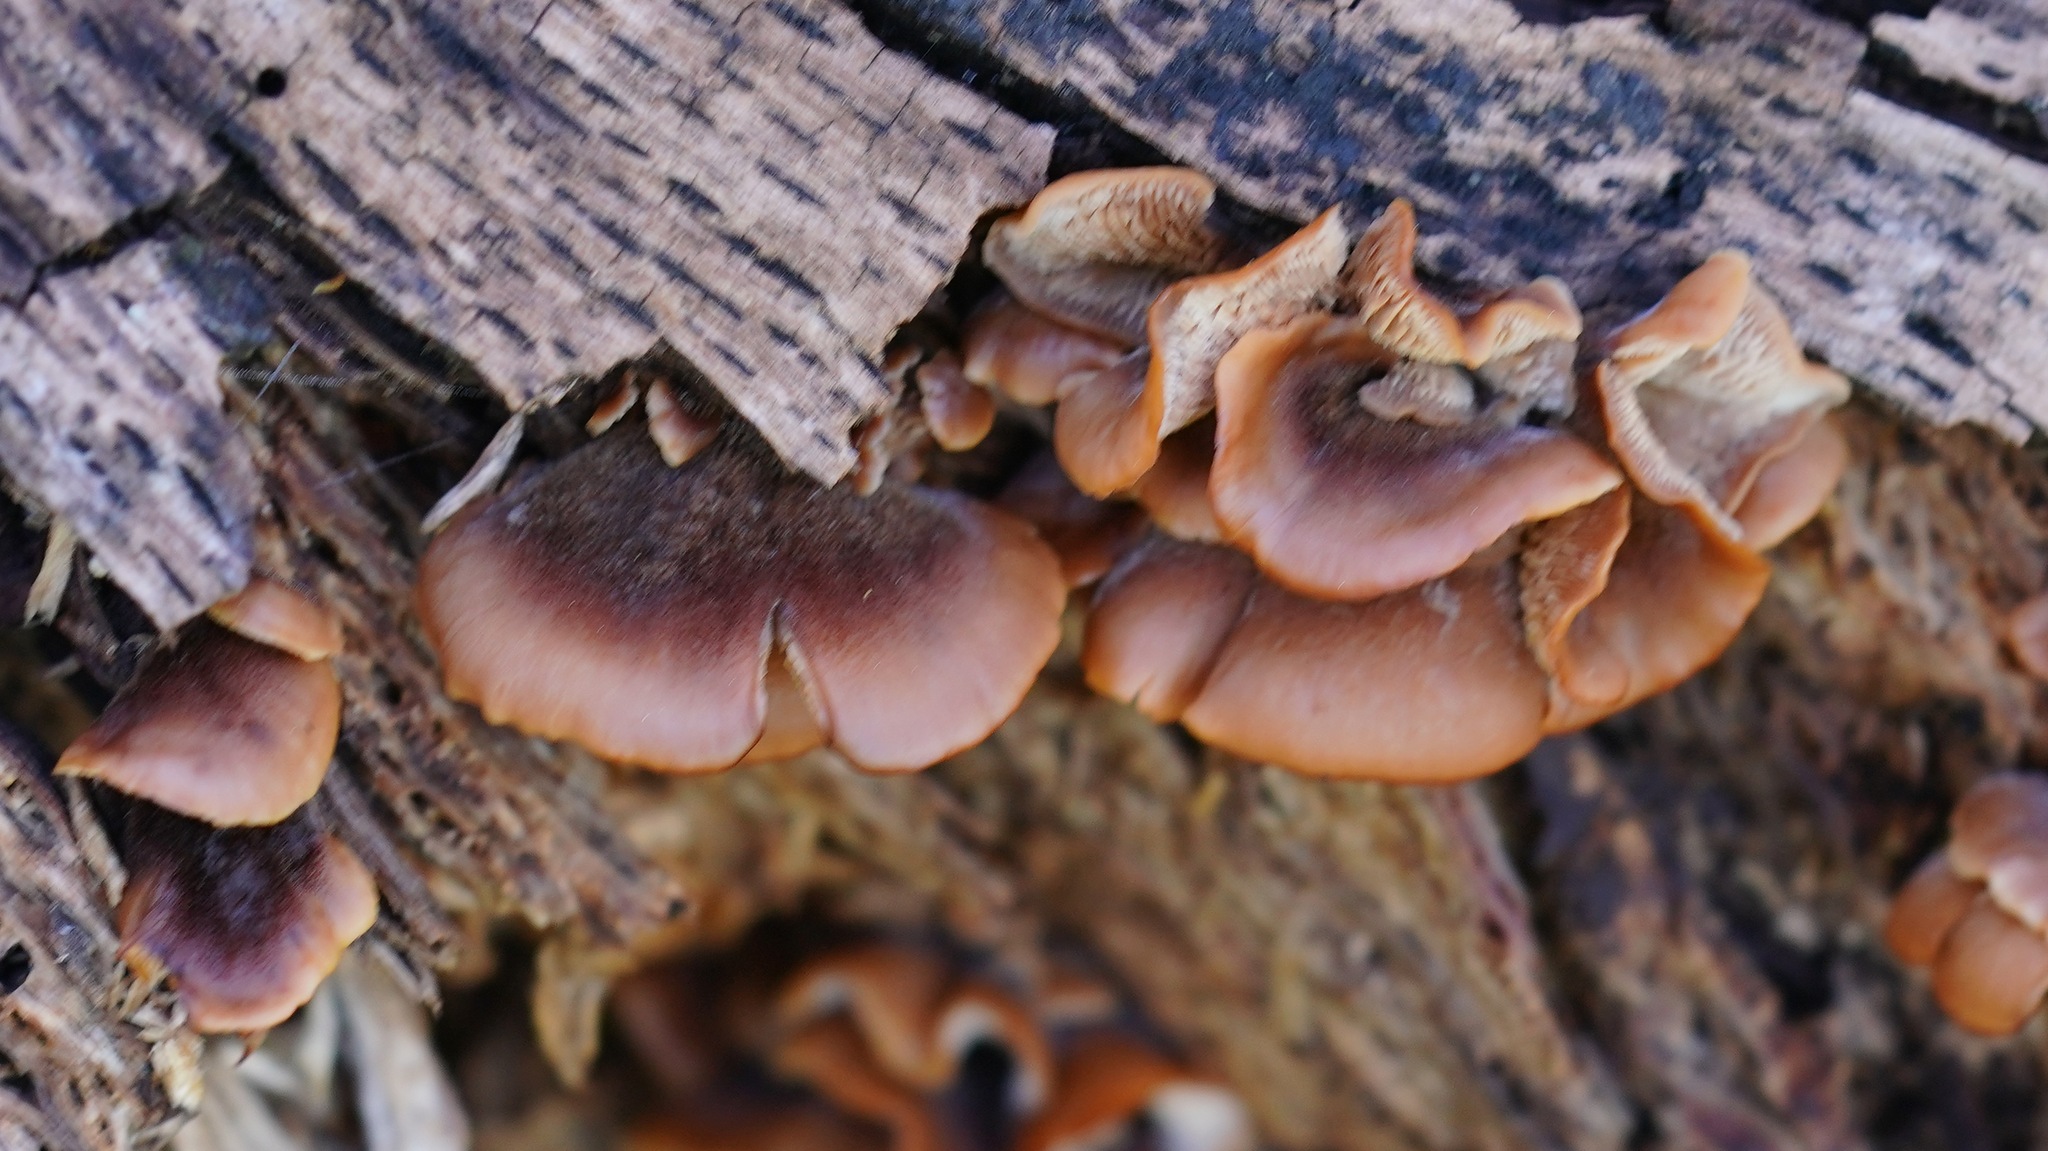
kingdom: Fungi
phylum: Basidiomycota
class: Agaricomycetes
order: Russulales
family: Auriscalpiaceae
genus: Lentinellus
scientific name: Lentinellus ursinus
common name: Bear lentinus
